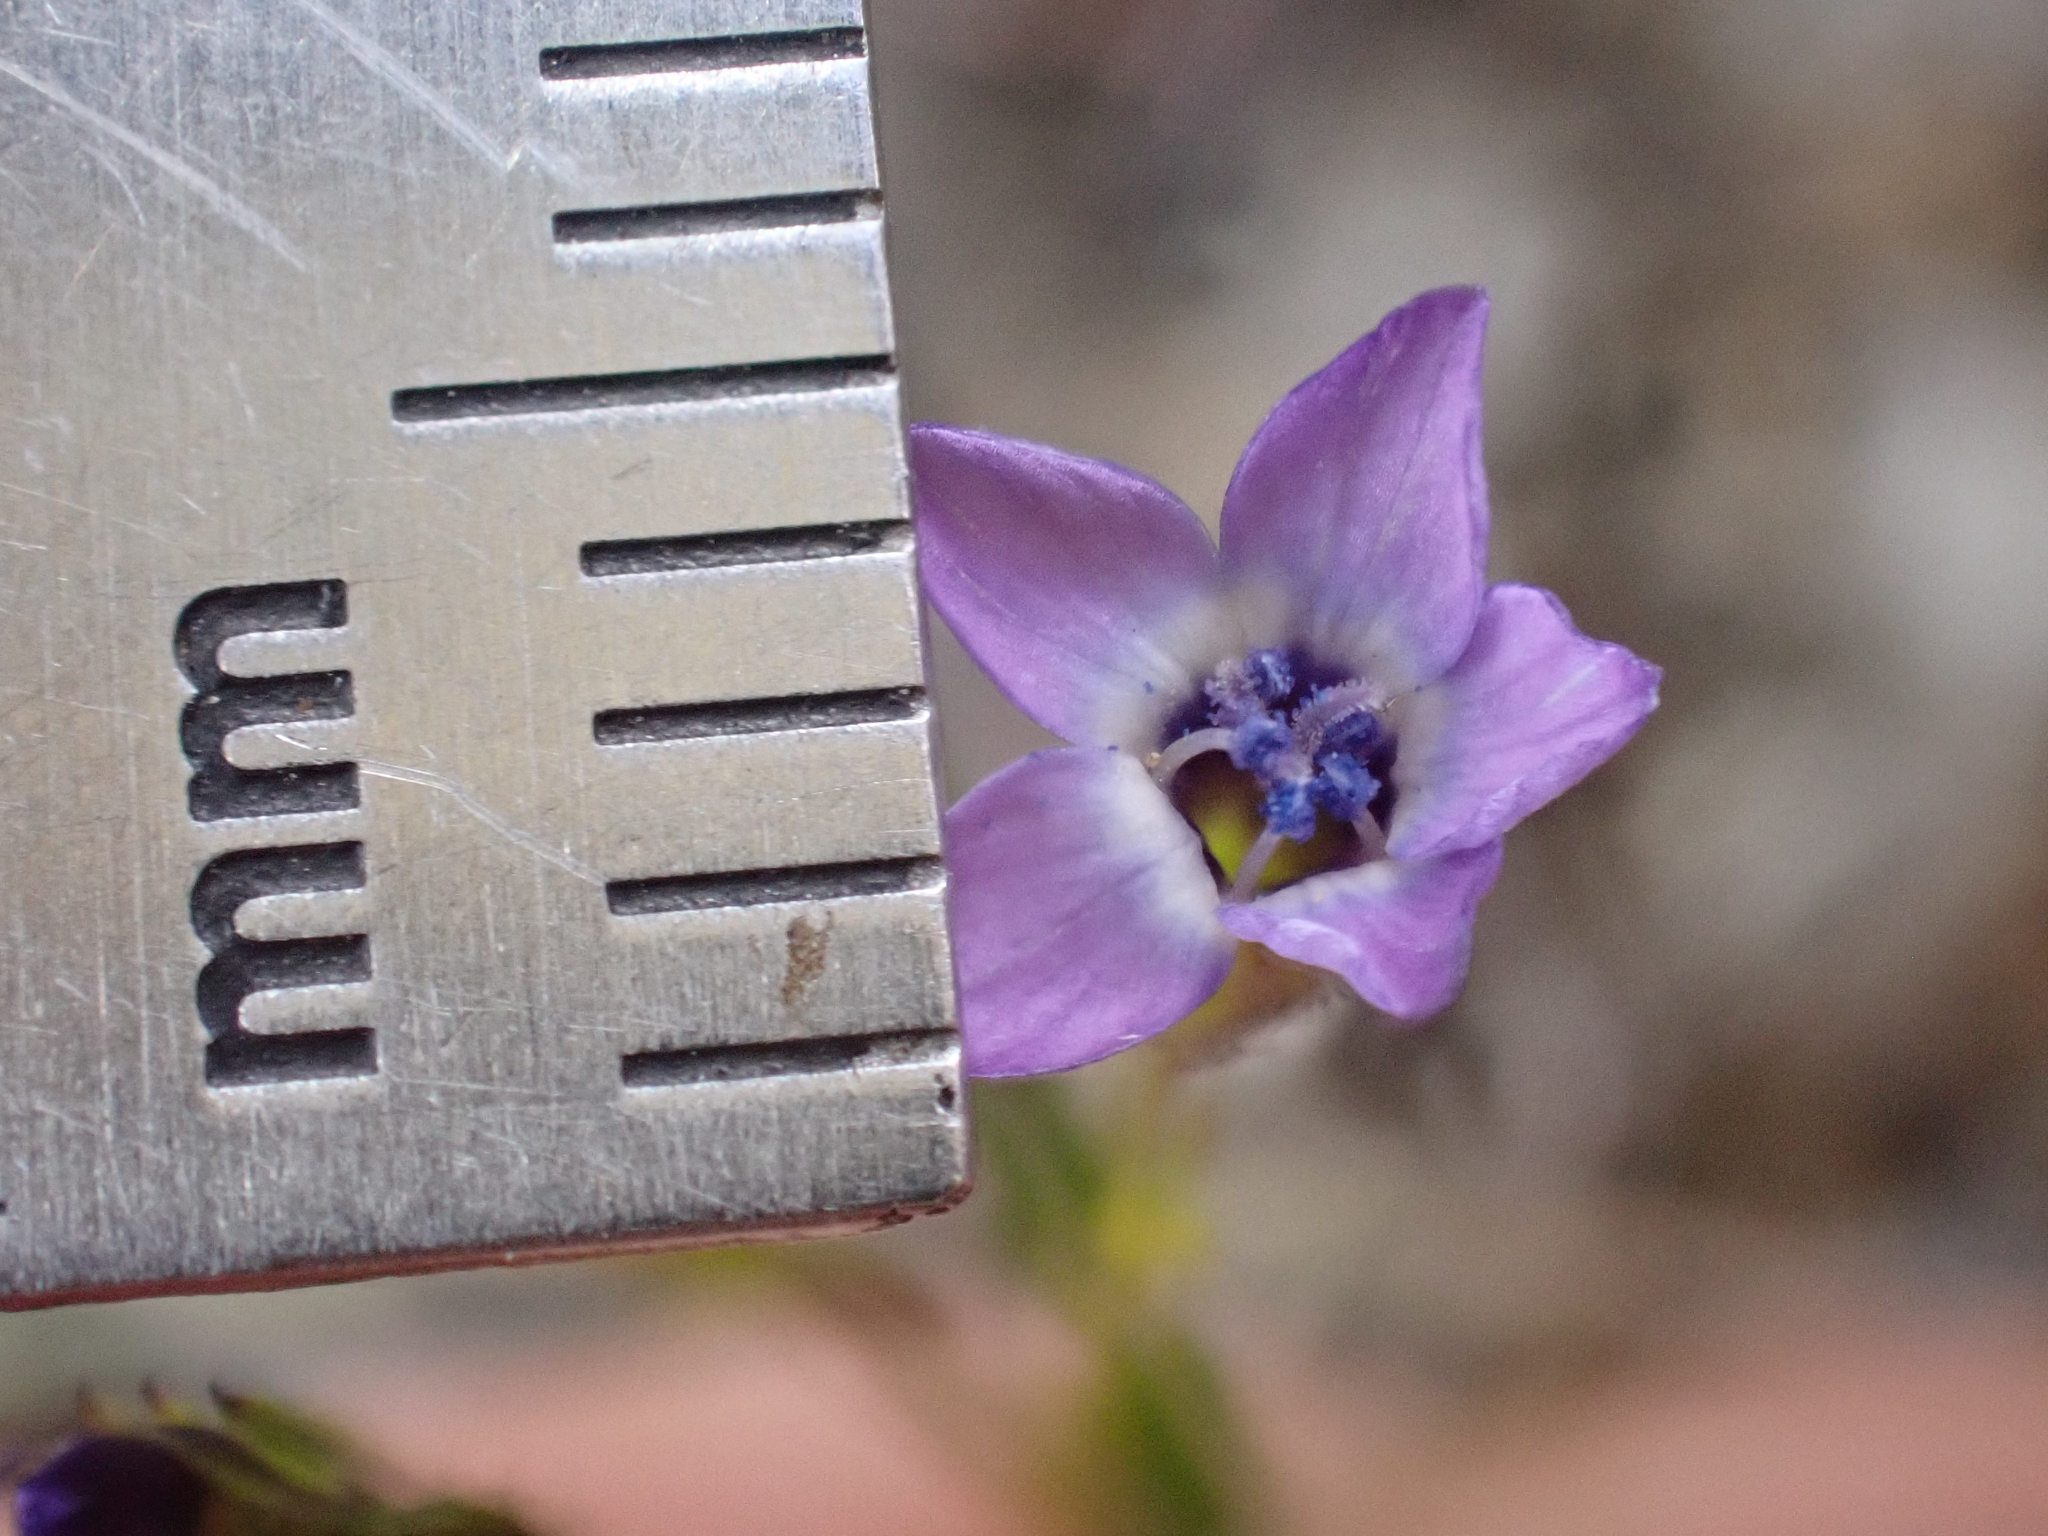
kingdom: Plantae
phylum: Tracheophyta
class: Magnoliopsida
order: Ericales
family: Polemoniaceae
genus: Gilia
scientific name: Gilia minor
